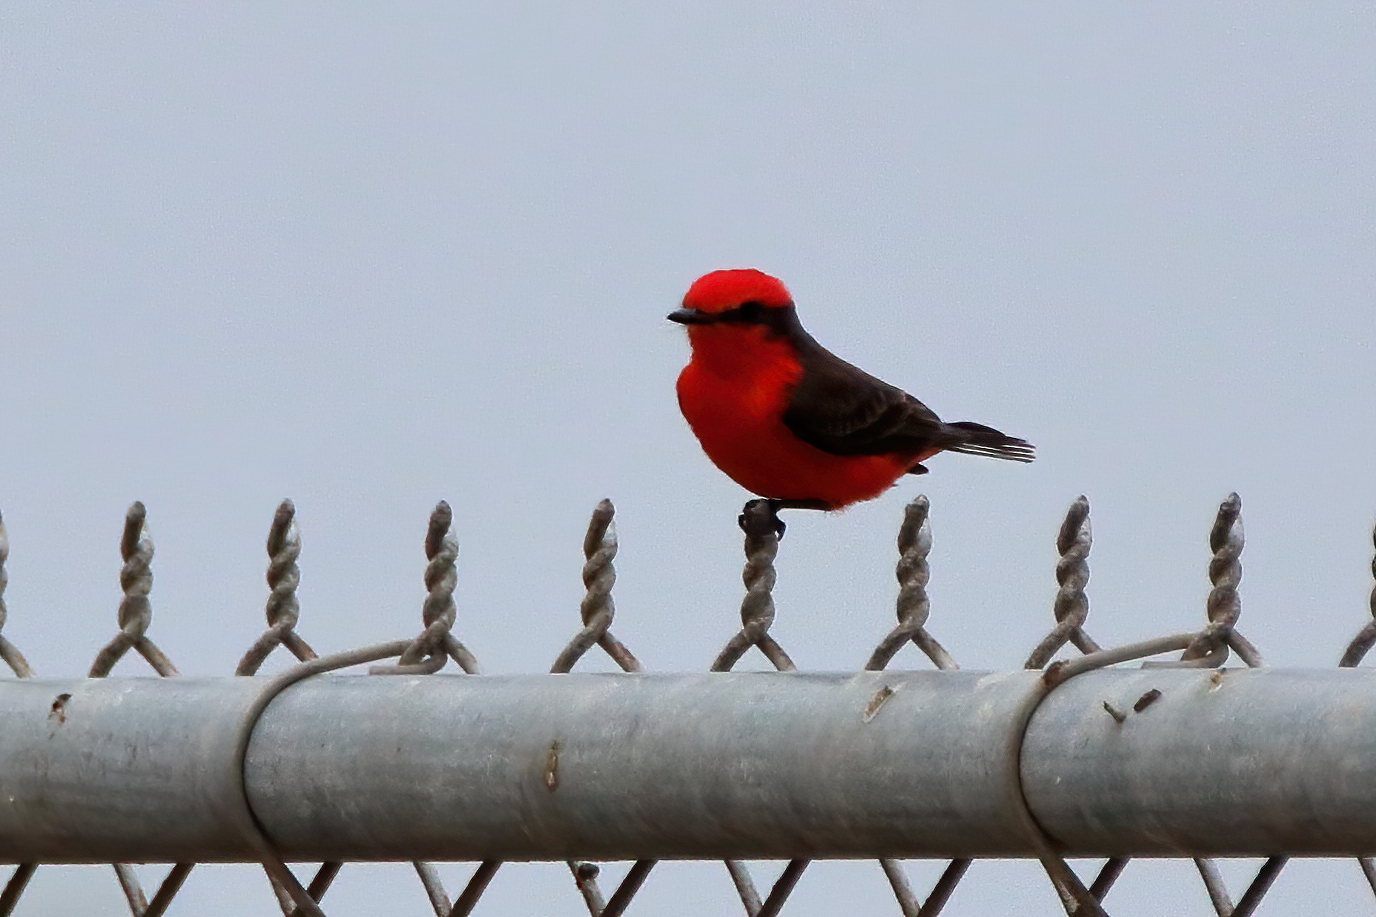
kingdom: Animalia
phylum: Chordata
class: Aves
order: Passeriformes
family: Tyrannidae
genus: Pyrocephalus
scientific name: Pyrocephalus rubinus
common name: Vermilion flycatcher
